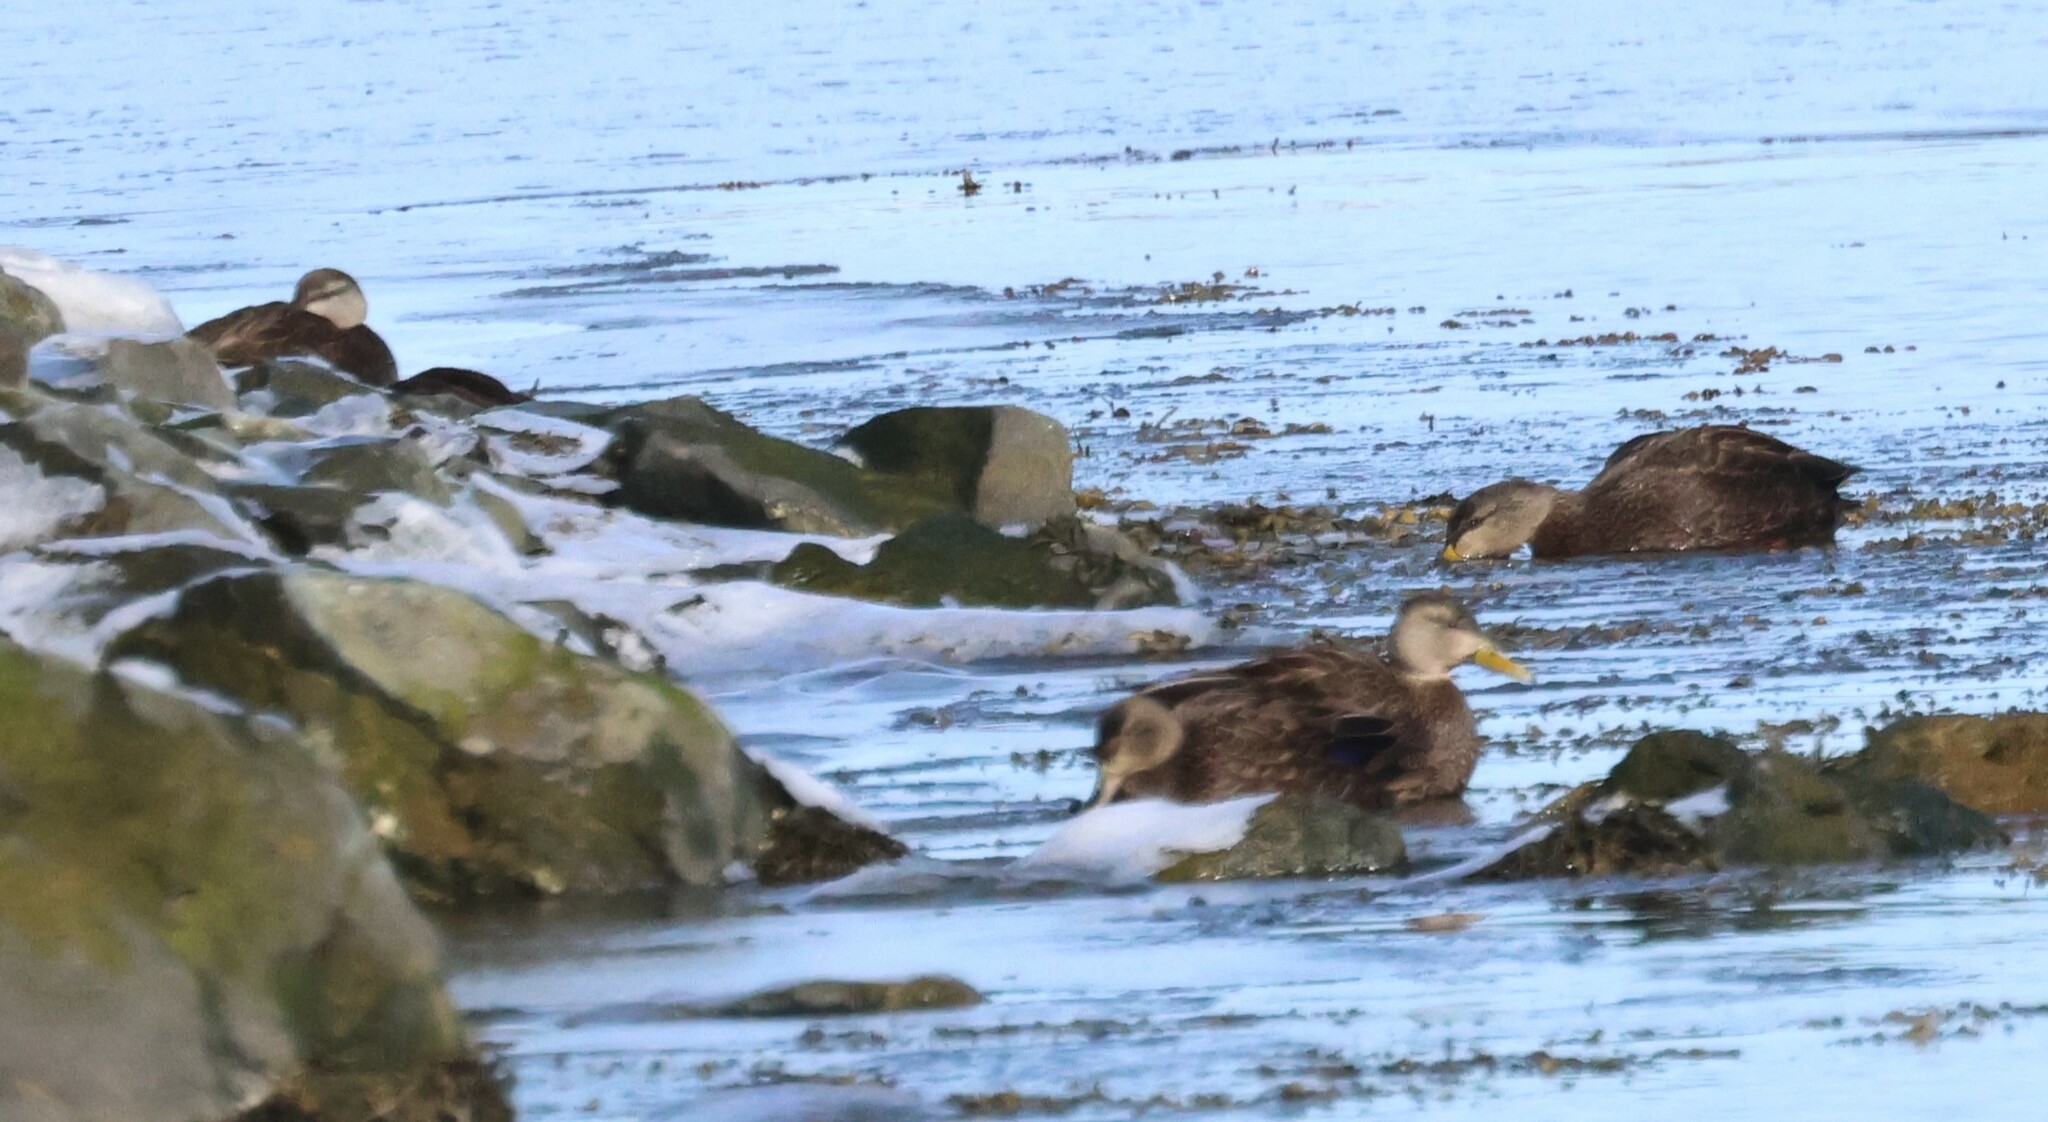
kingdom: Animalia
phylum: Chordata
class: Aves
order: Anseriformes
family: Anatidae
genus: Anas
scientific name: Anas rubripes
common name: American black duck
